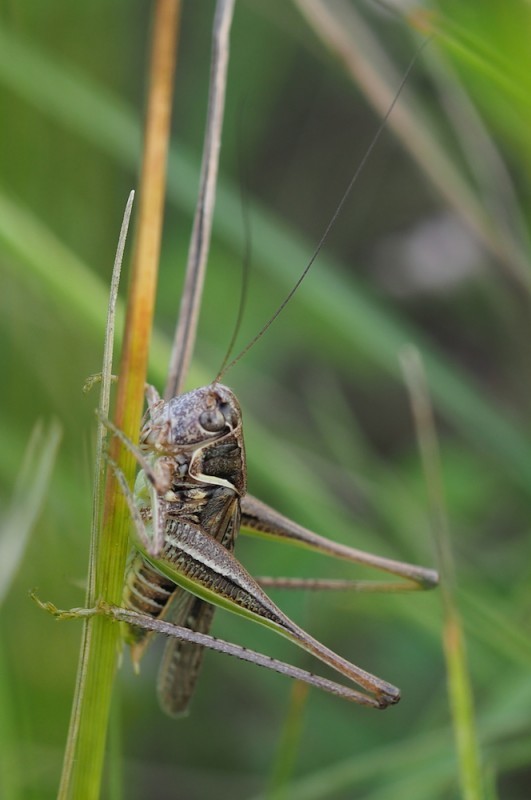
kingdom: Animalia
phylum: Arthropoda
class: Insecta
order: Orthoptera
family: Tettigoniidae
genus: Montana
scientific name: Montana montana
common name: Steppe bush-cricket
